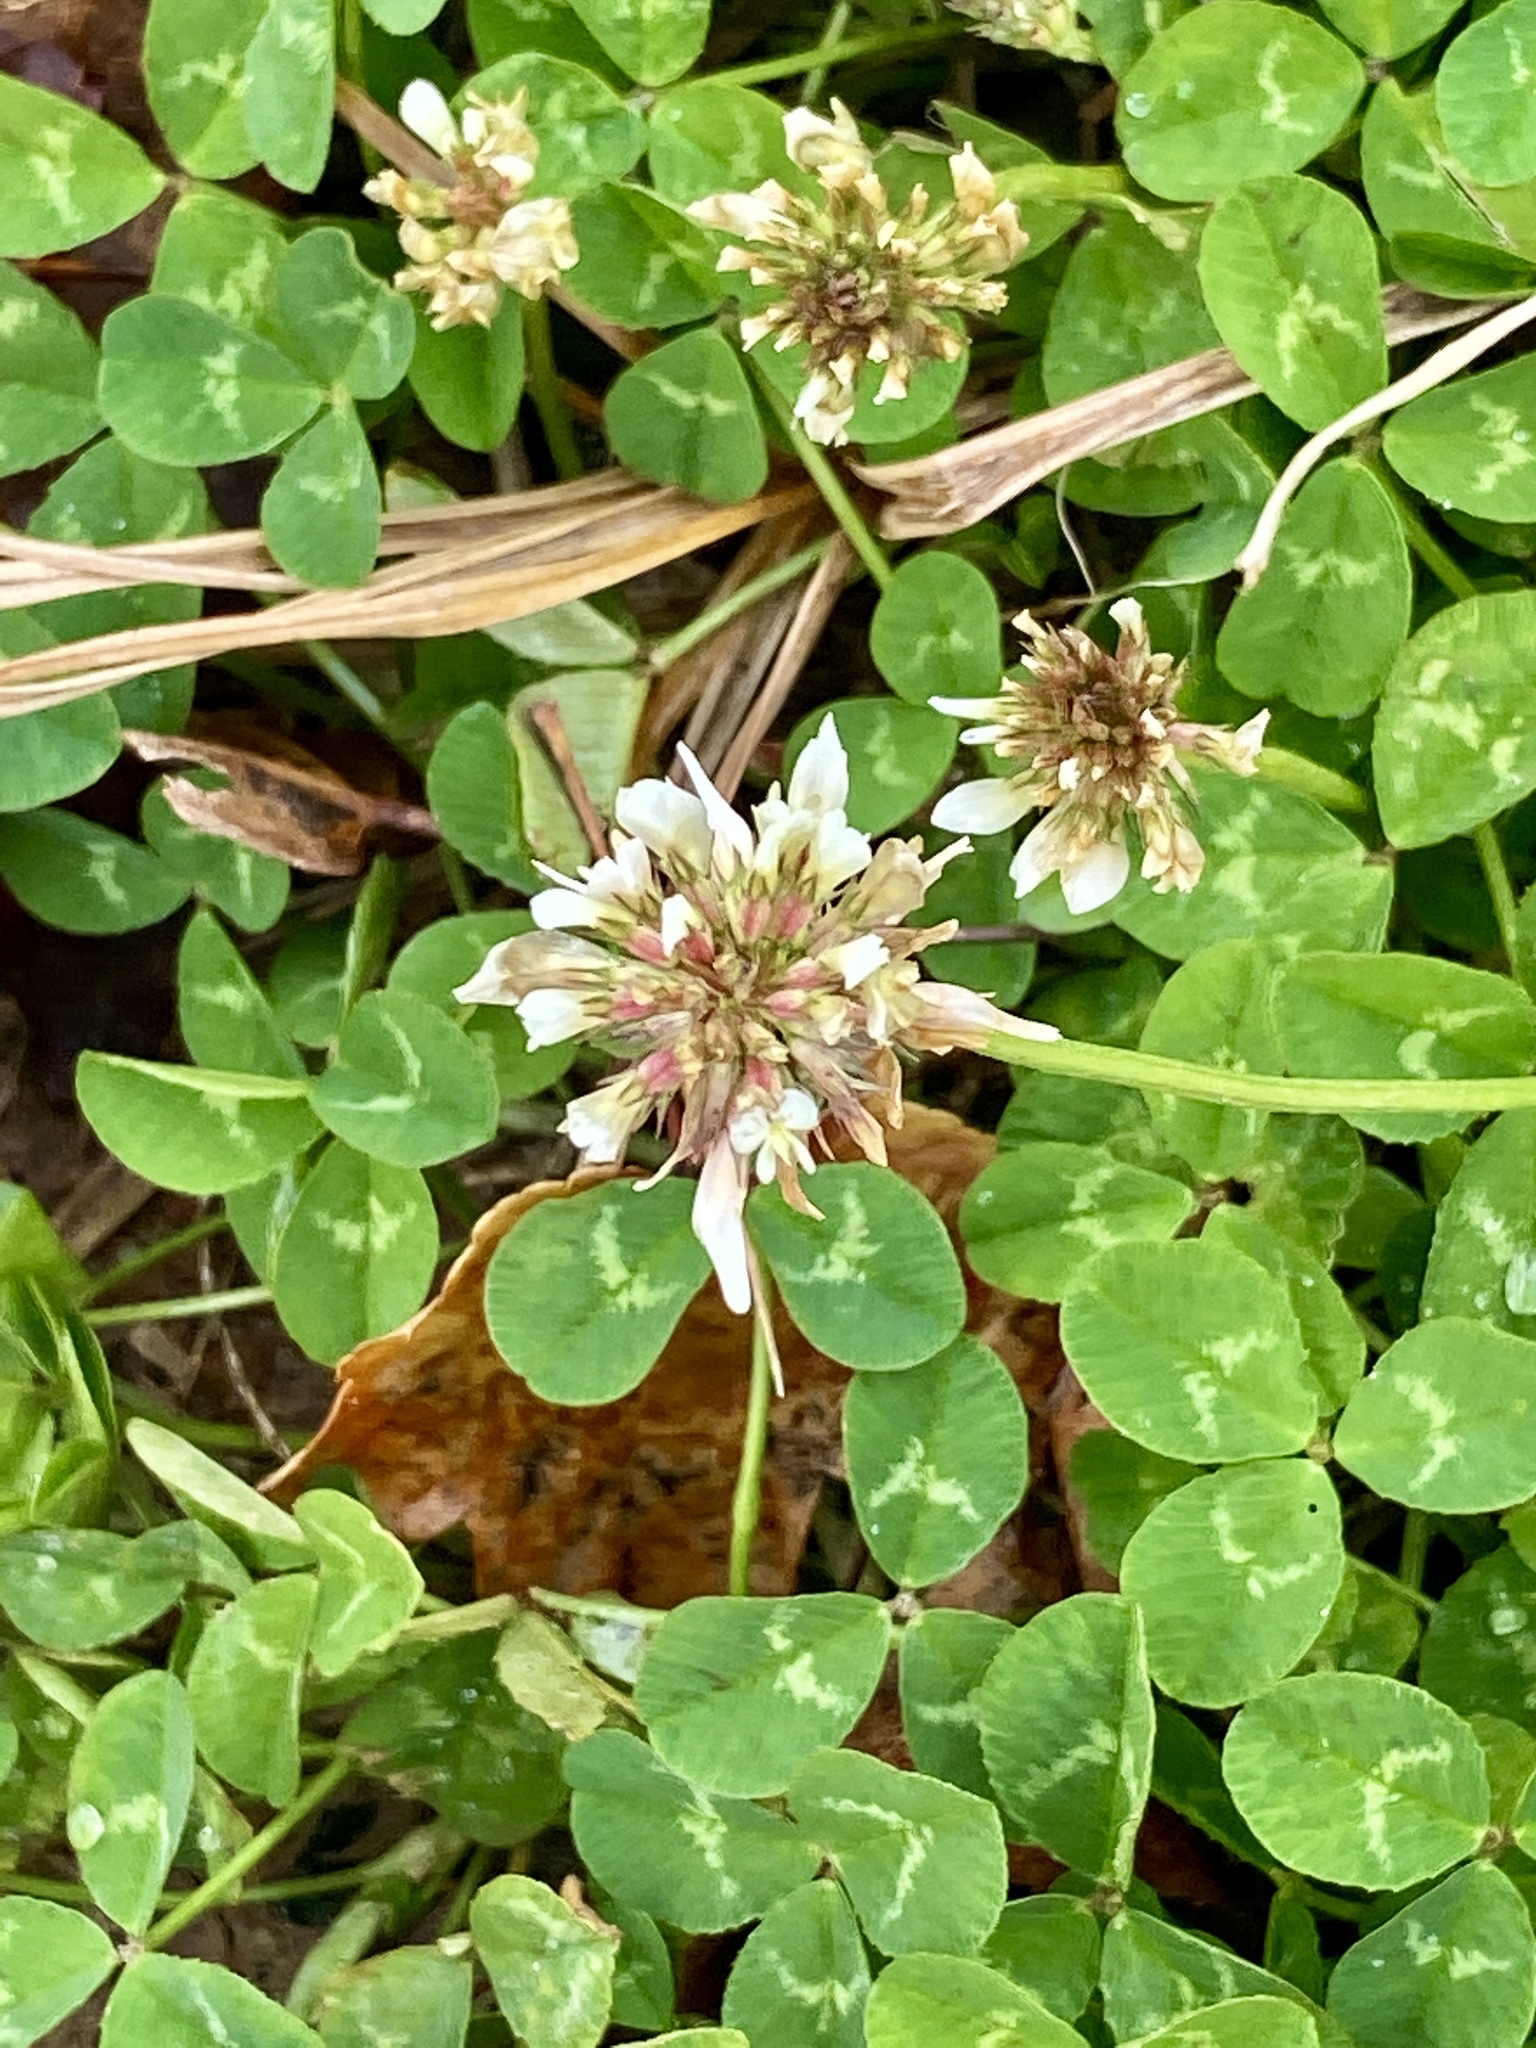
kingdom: Plantae
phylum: Tracheophyta
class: Magnoliopsida
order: Fabales
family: Fabaceae
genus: Trifolium
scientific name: Trifolium repens
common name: White clover
